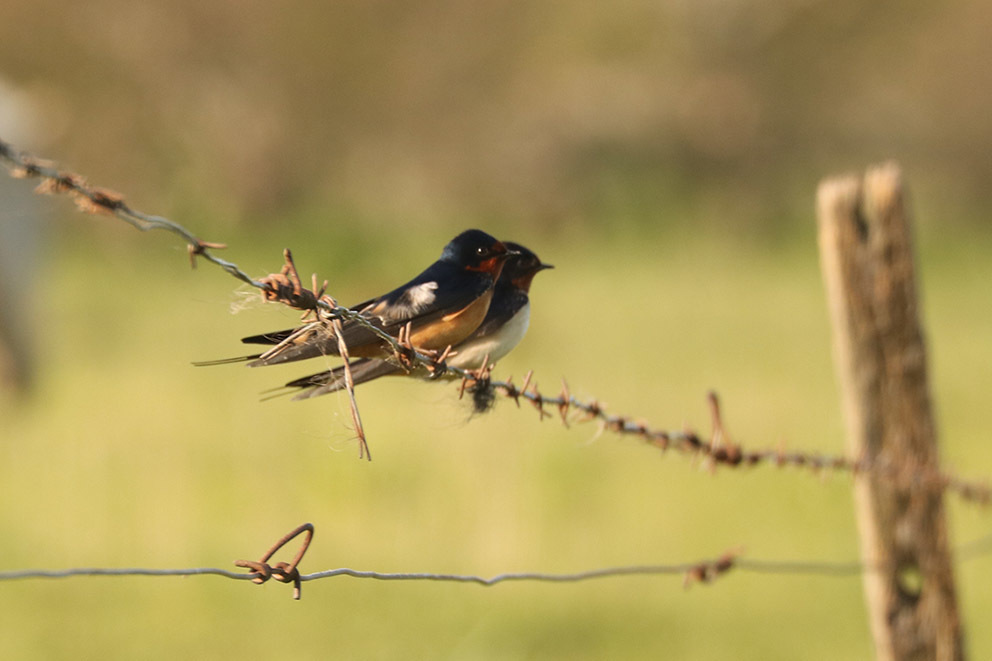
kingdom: Animalia
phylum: Chordata
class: Aves
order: Passeriformes
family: Hirundinidae
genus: Hirundo
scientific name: Hirundo rustica
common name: Barn swallow
